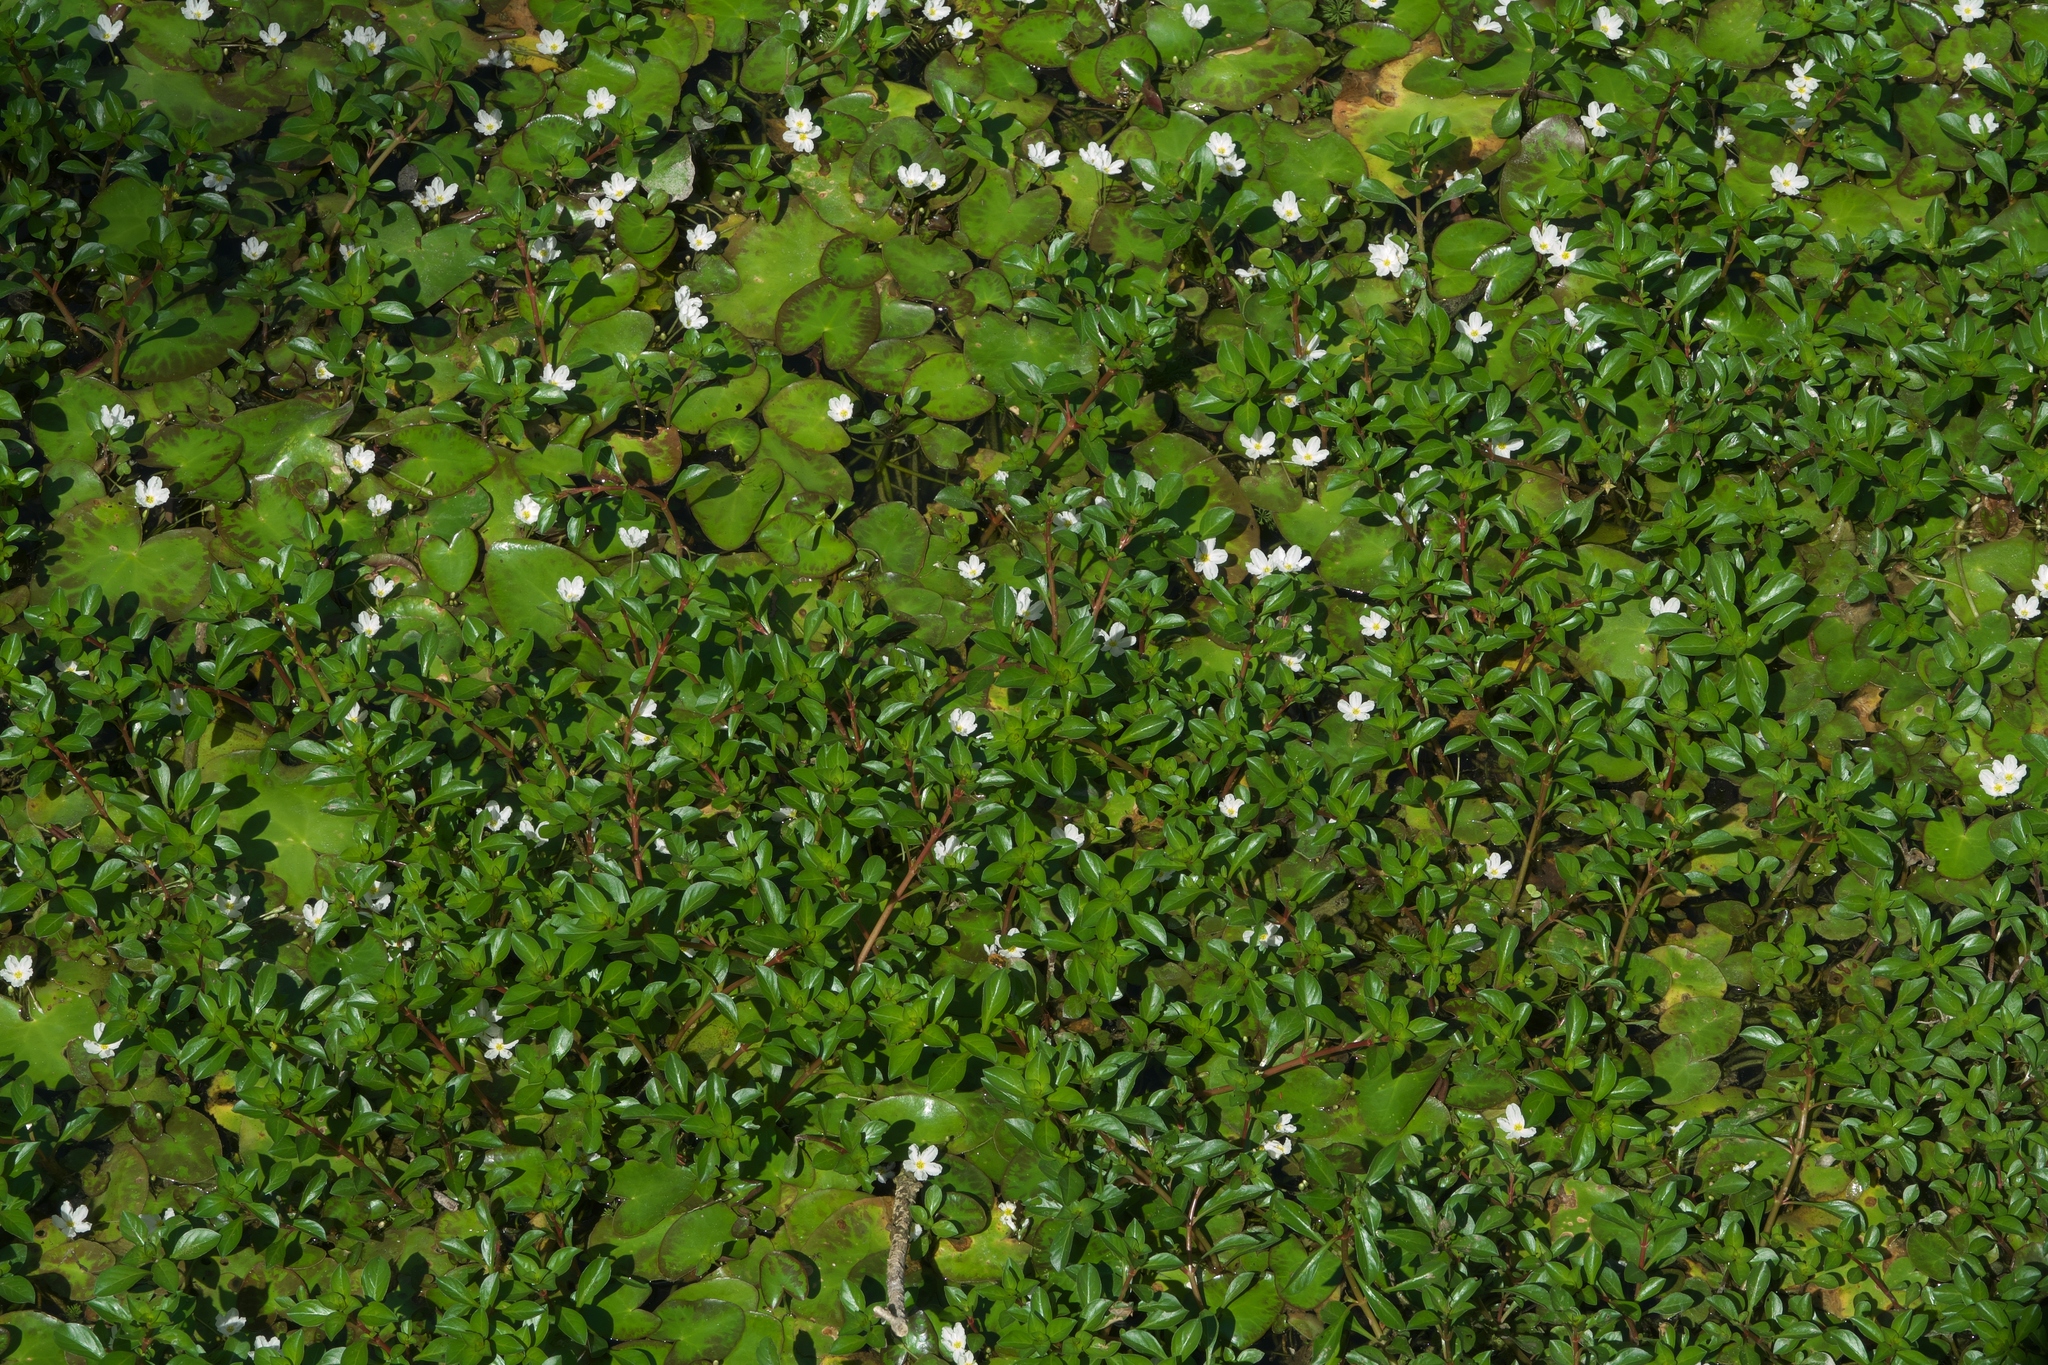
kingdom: Plantae
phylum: Tracheophyta
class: Magnoliopsida
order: Asterales
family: Menyanthaceae
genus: Nymphoides
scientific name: Nymphoides hydrophylla
